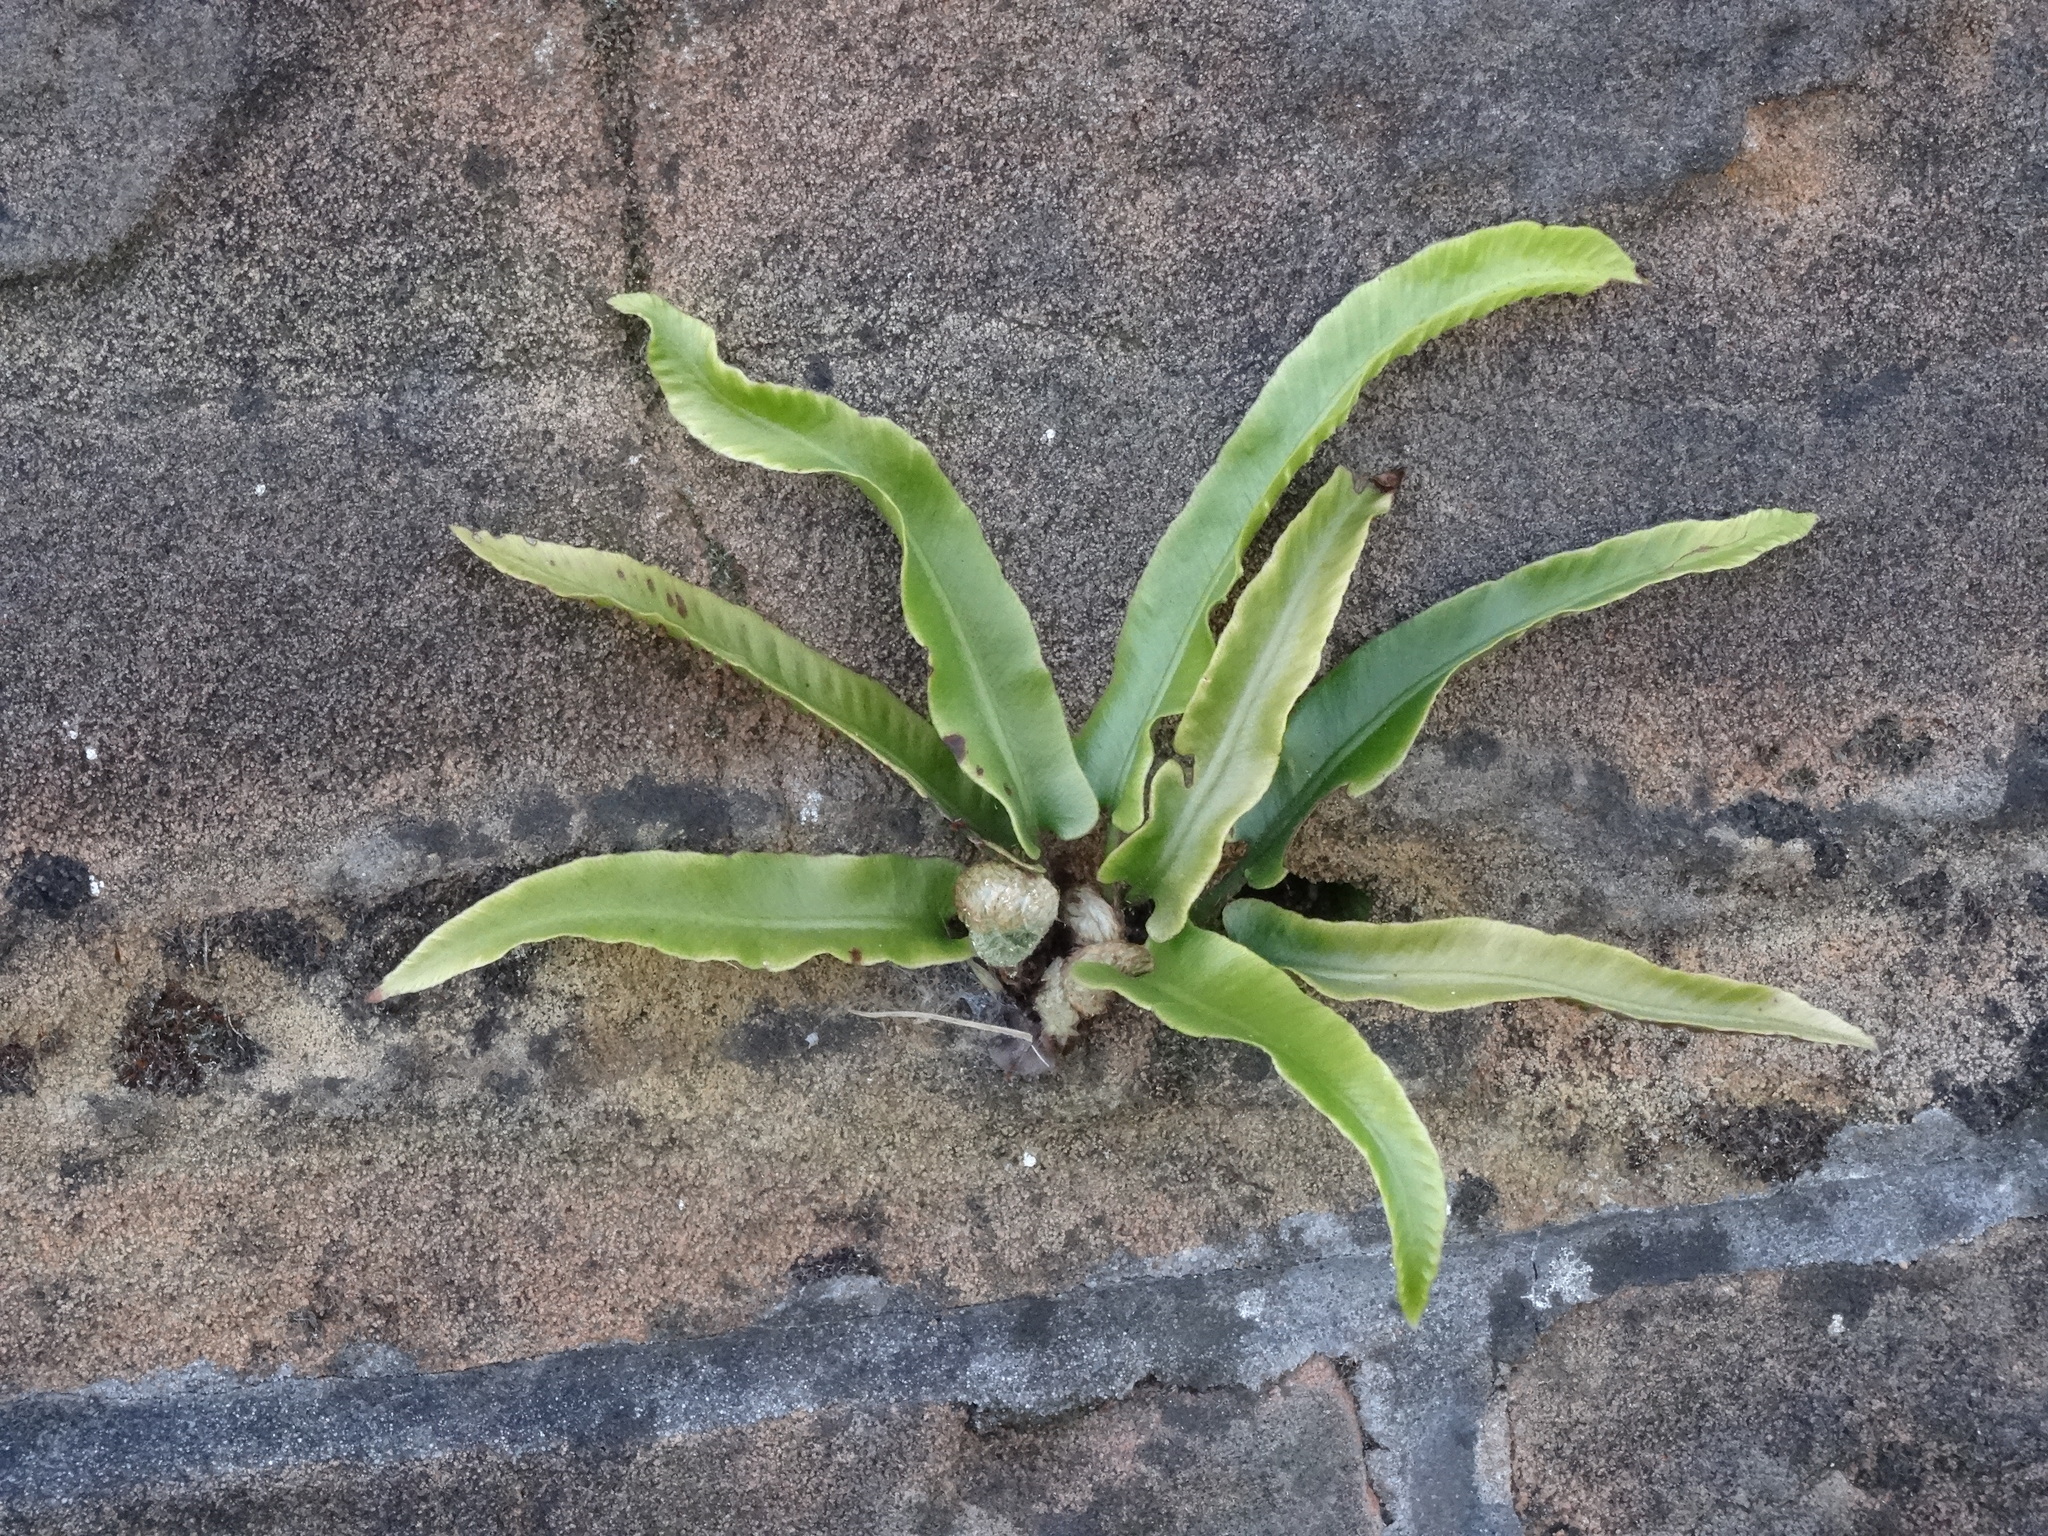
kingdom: Plantae
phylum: Tracheophyta
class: Polypodiopsida
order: Polypodiales
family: Aspleniaceae
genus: Asplenium
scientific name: Asplenium scolopendrium
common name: Hart's-tongue fern
